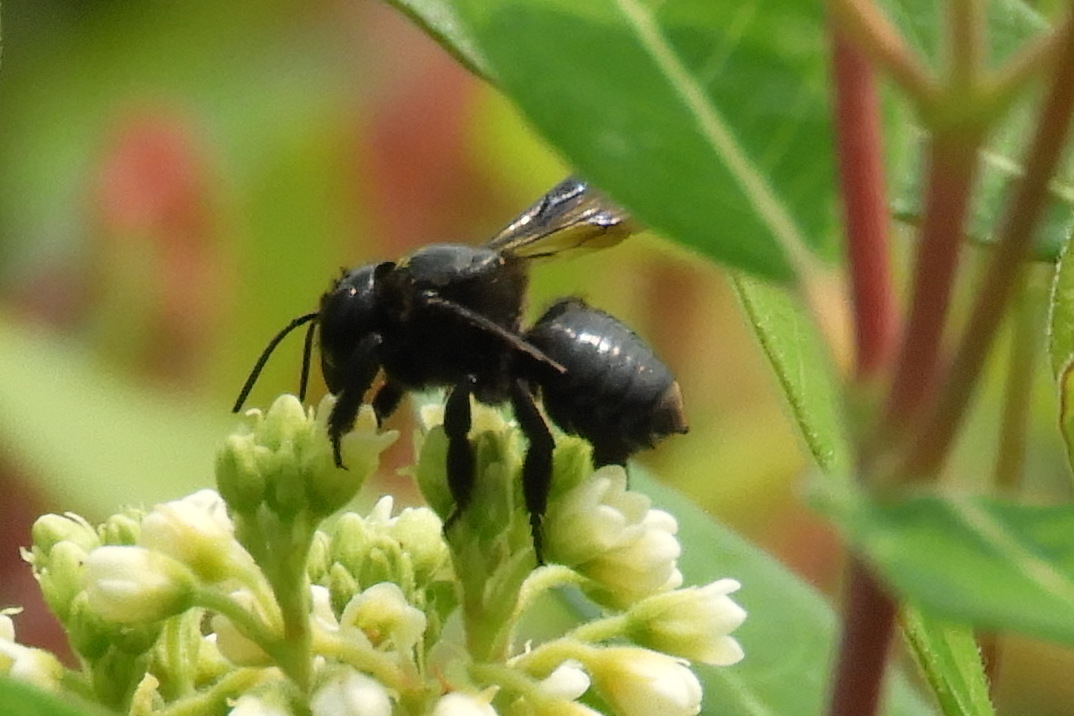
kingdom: Animalia
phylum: Arthropoda
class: Insecta
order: Hymenoptera
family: Megachilidae
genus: Megachile
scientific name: Megachile xylocopoides
